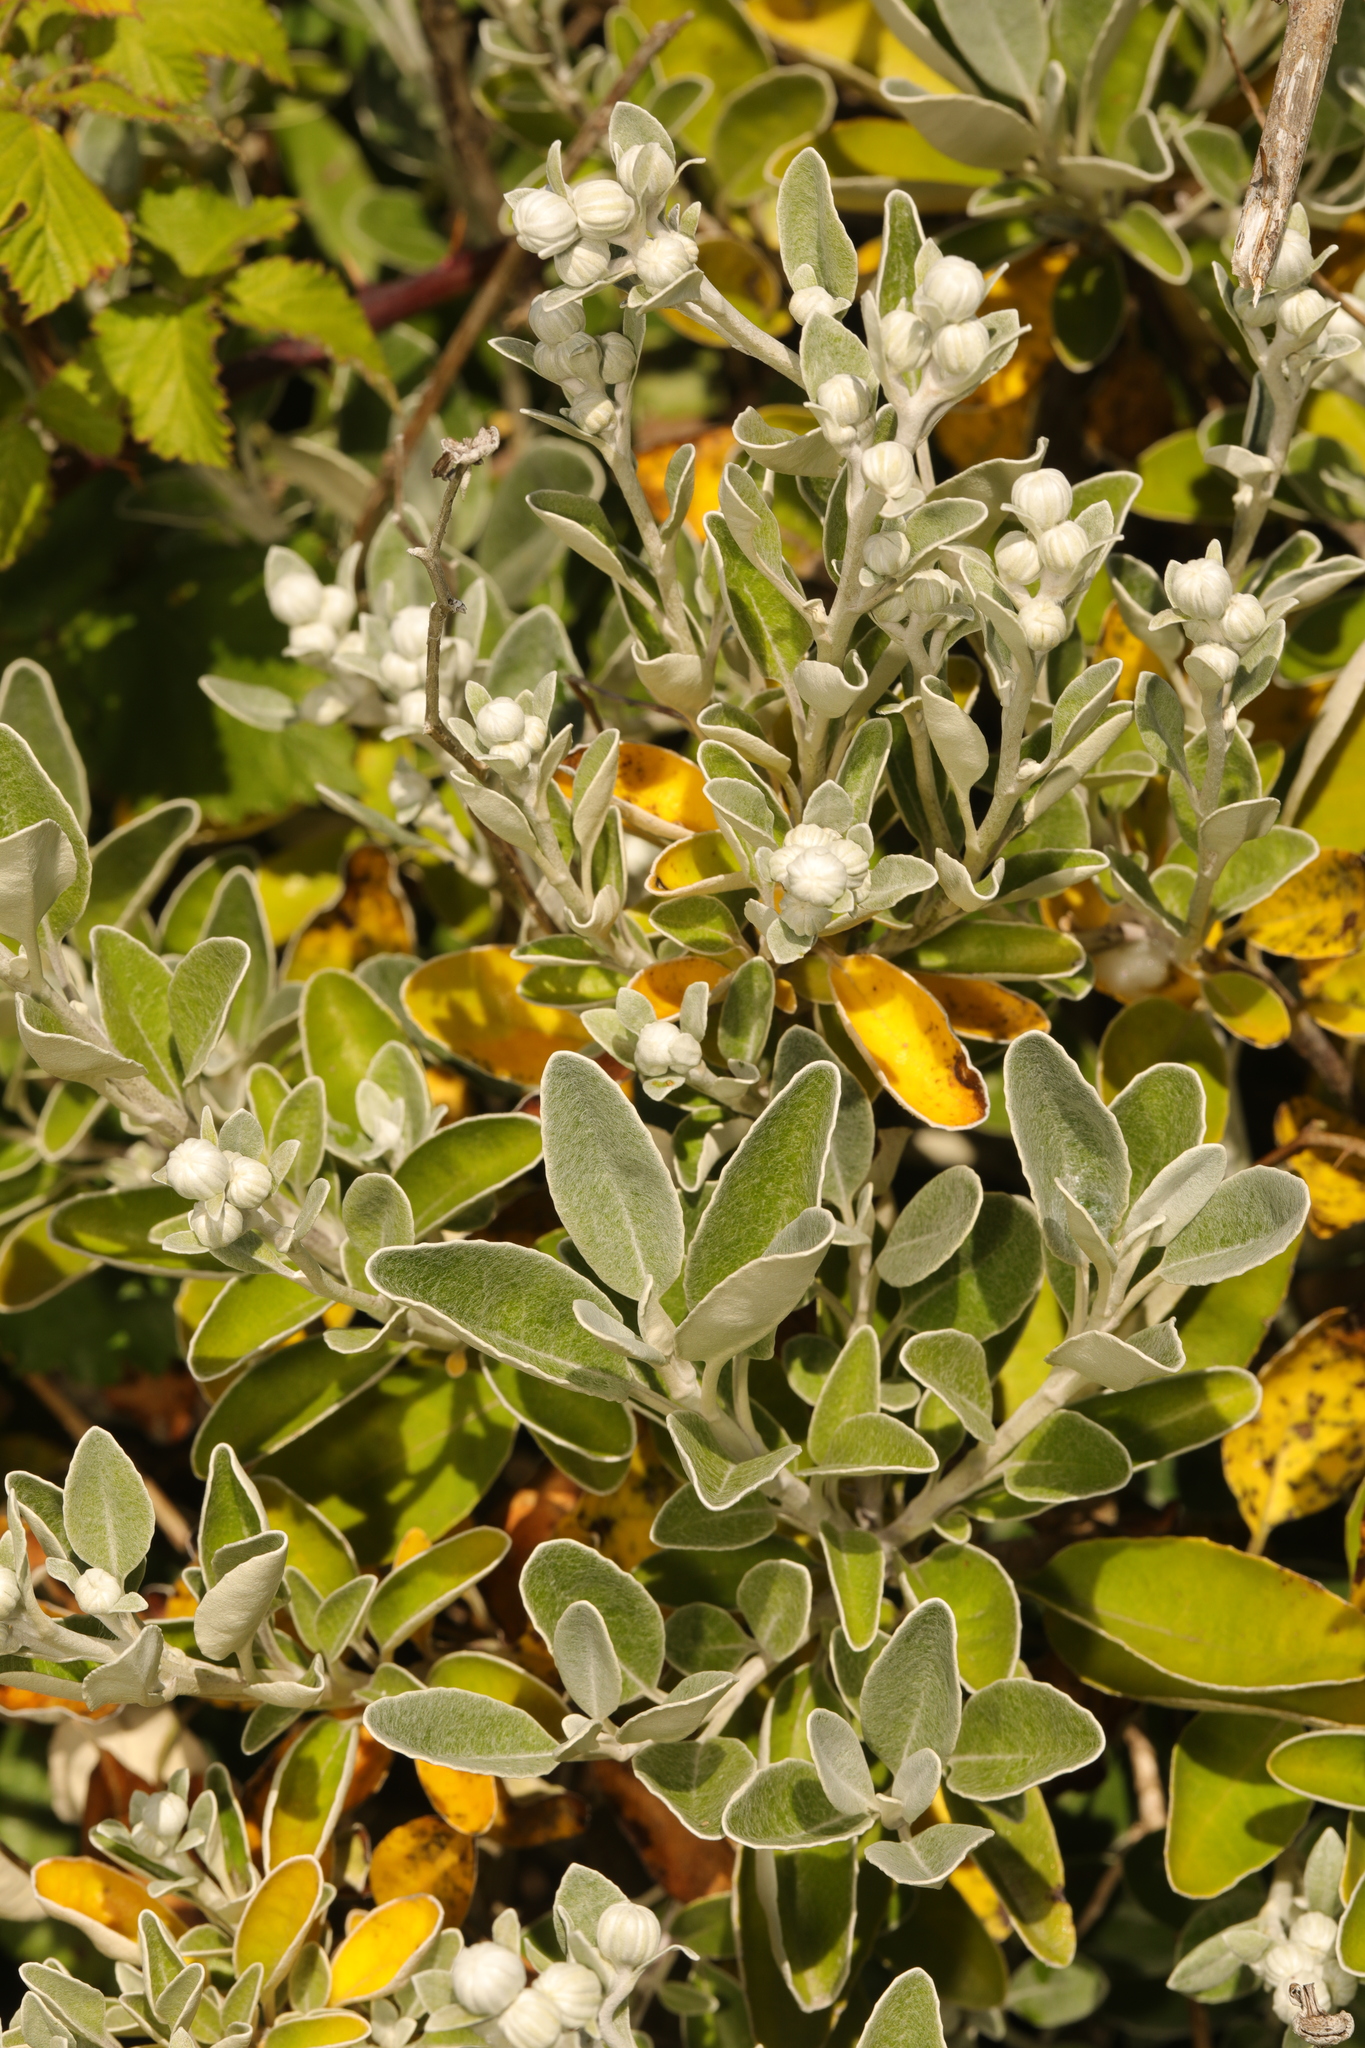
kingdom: Plantae
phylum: Tracheophyta
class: Magnoliopsida
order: Asterales
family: Asteraceae
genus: Brachyglottis
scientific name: Brachyglottis jubar
